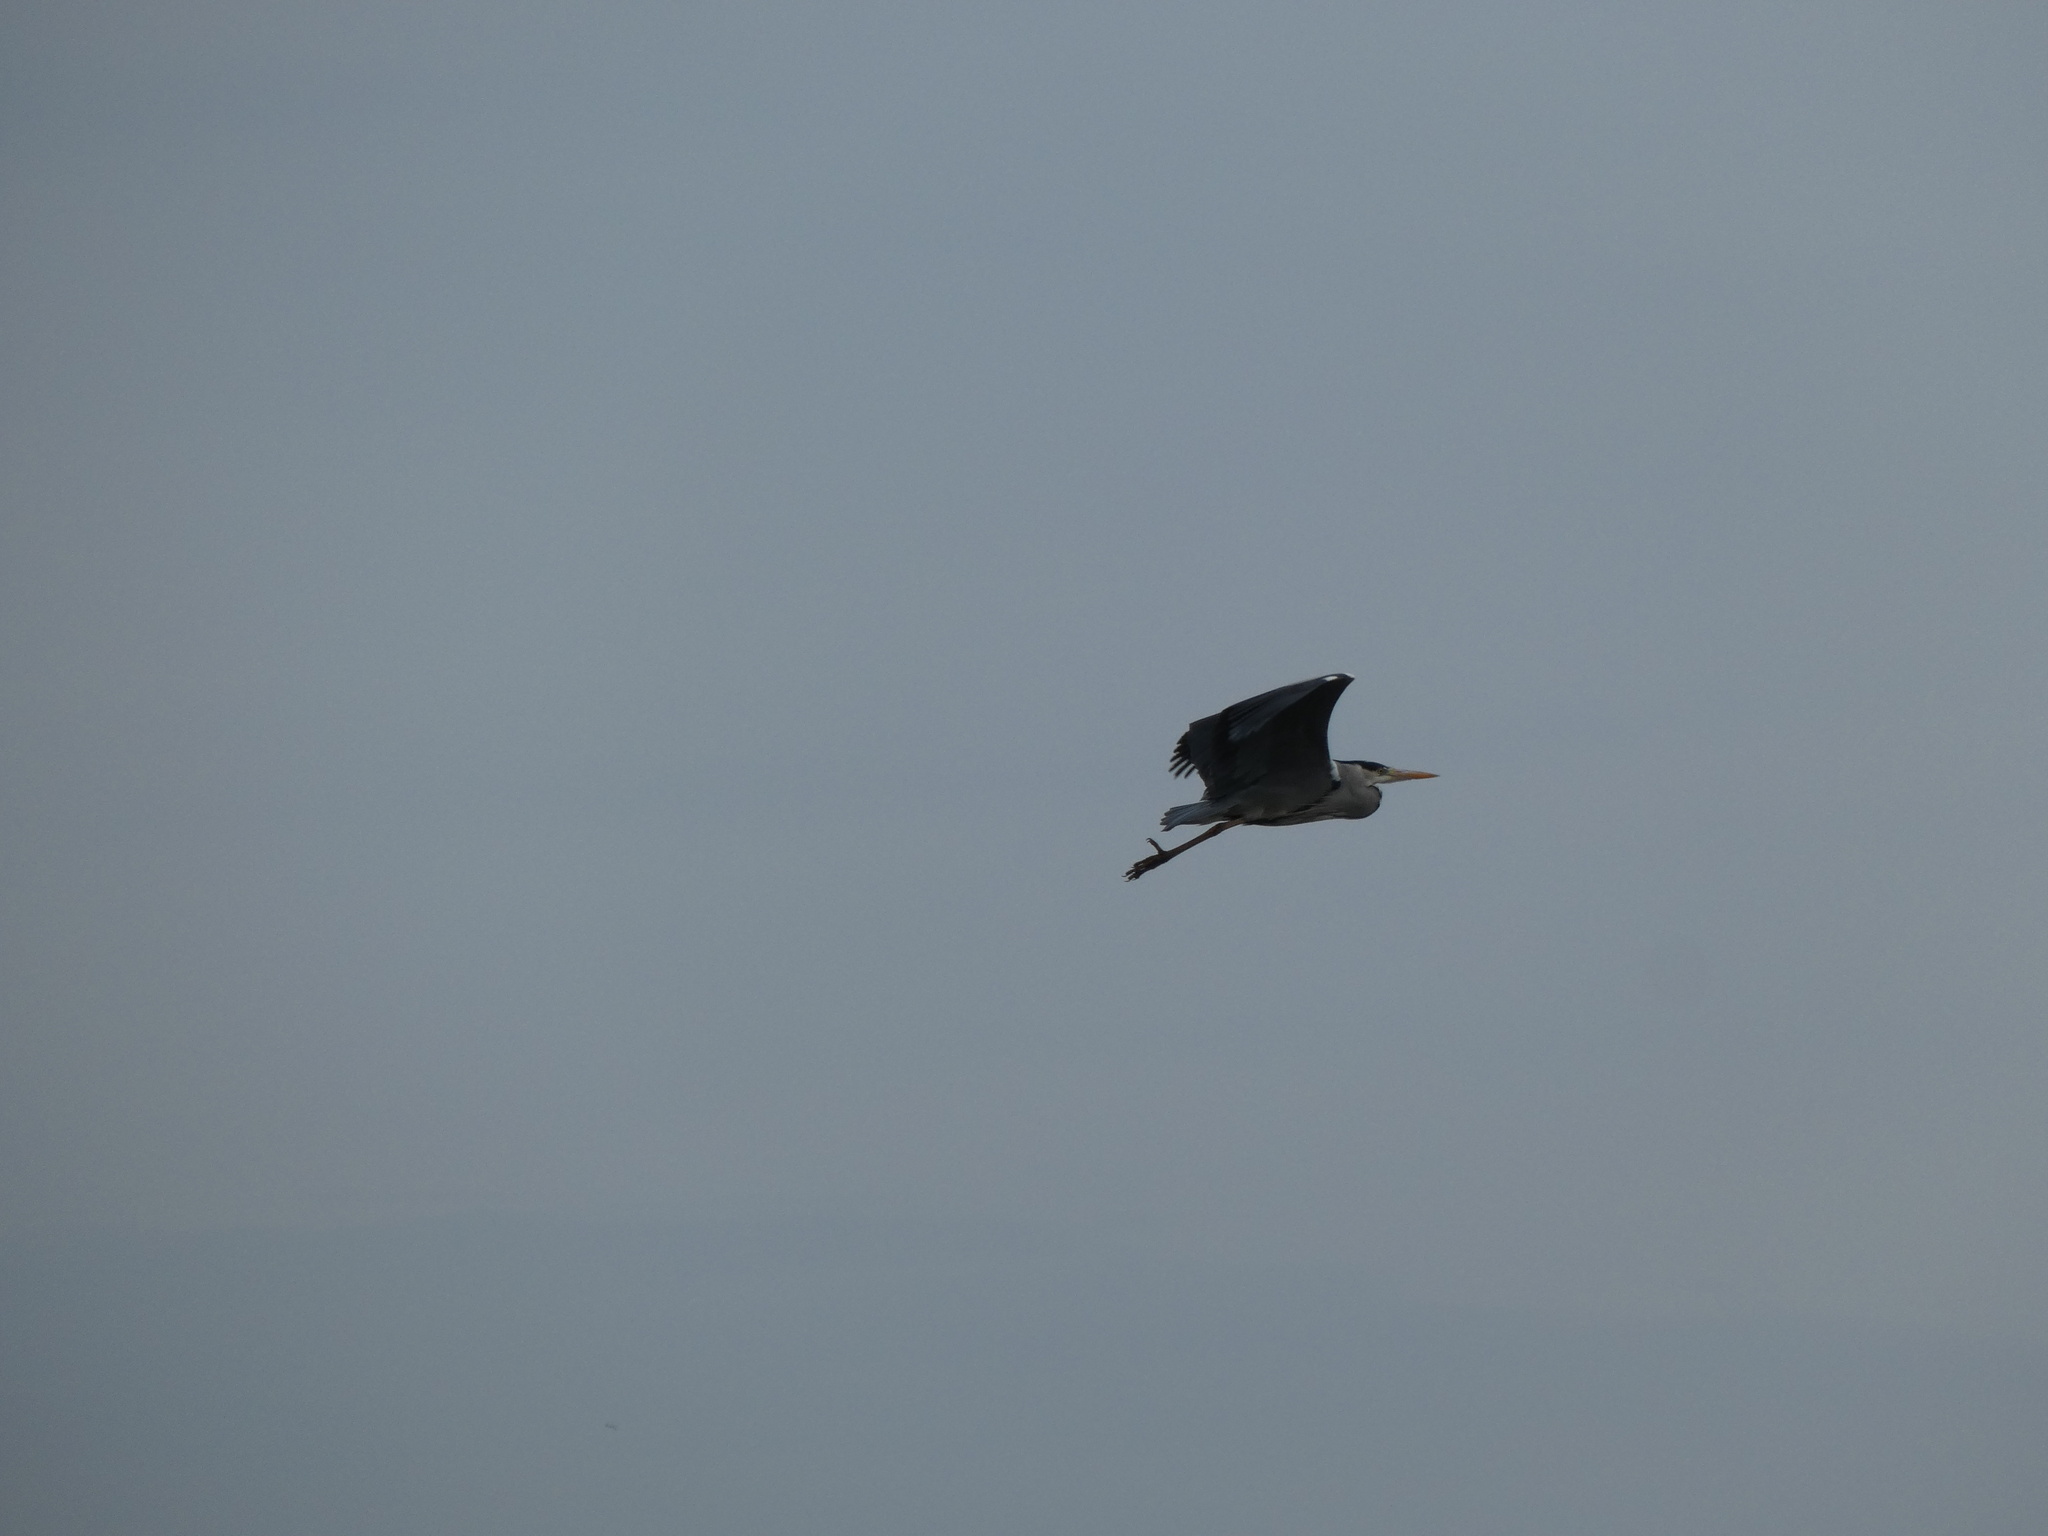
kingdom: Animalia
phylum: Chordata
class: Aves
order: Pelecaniformes
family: Ardeidae
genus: Ardea
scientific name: Ardea cinerea
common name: Grey heron
